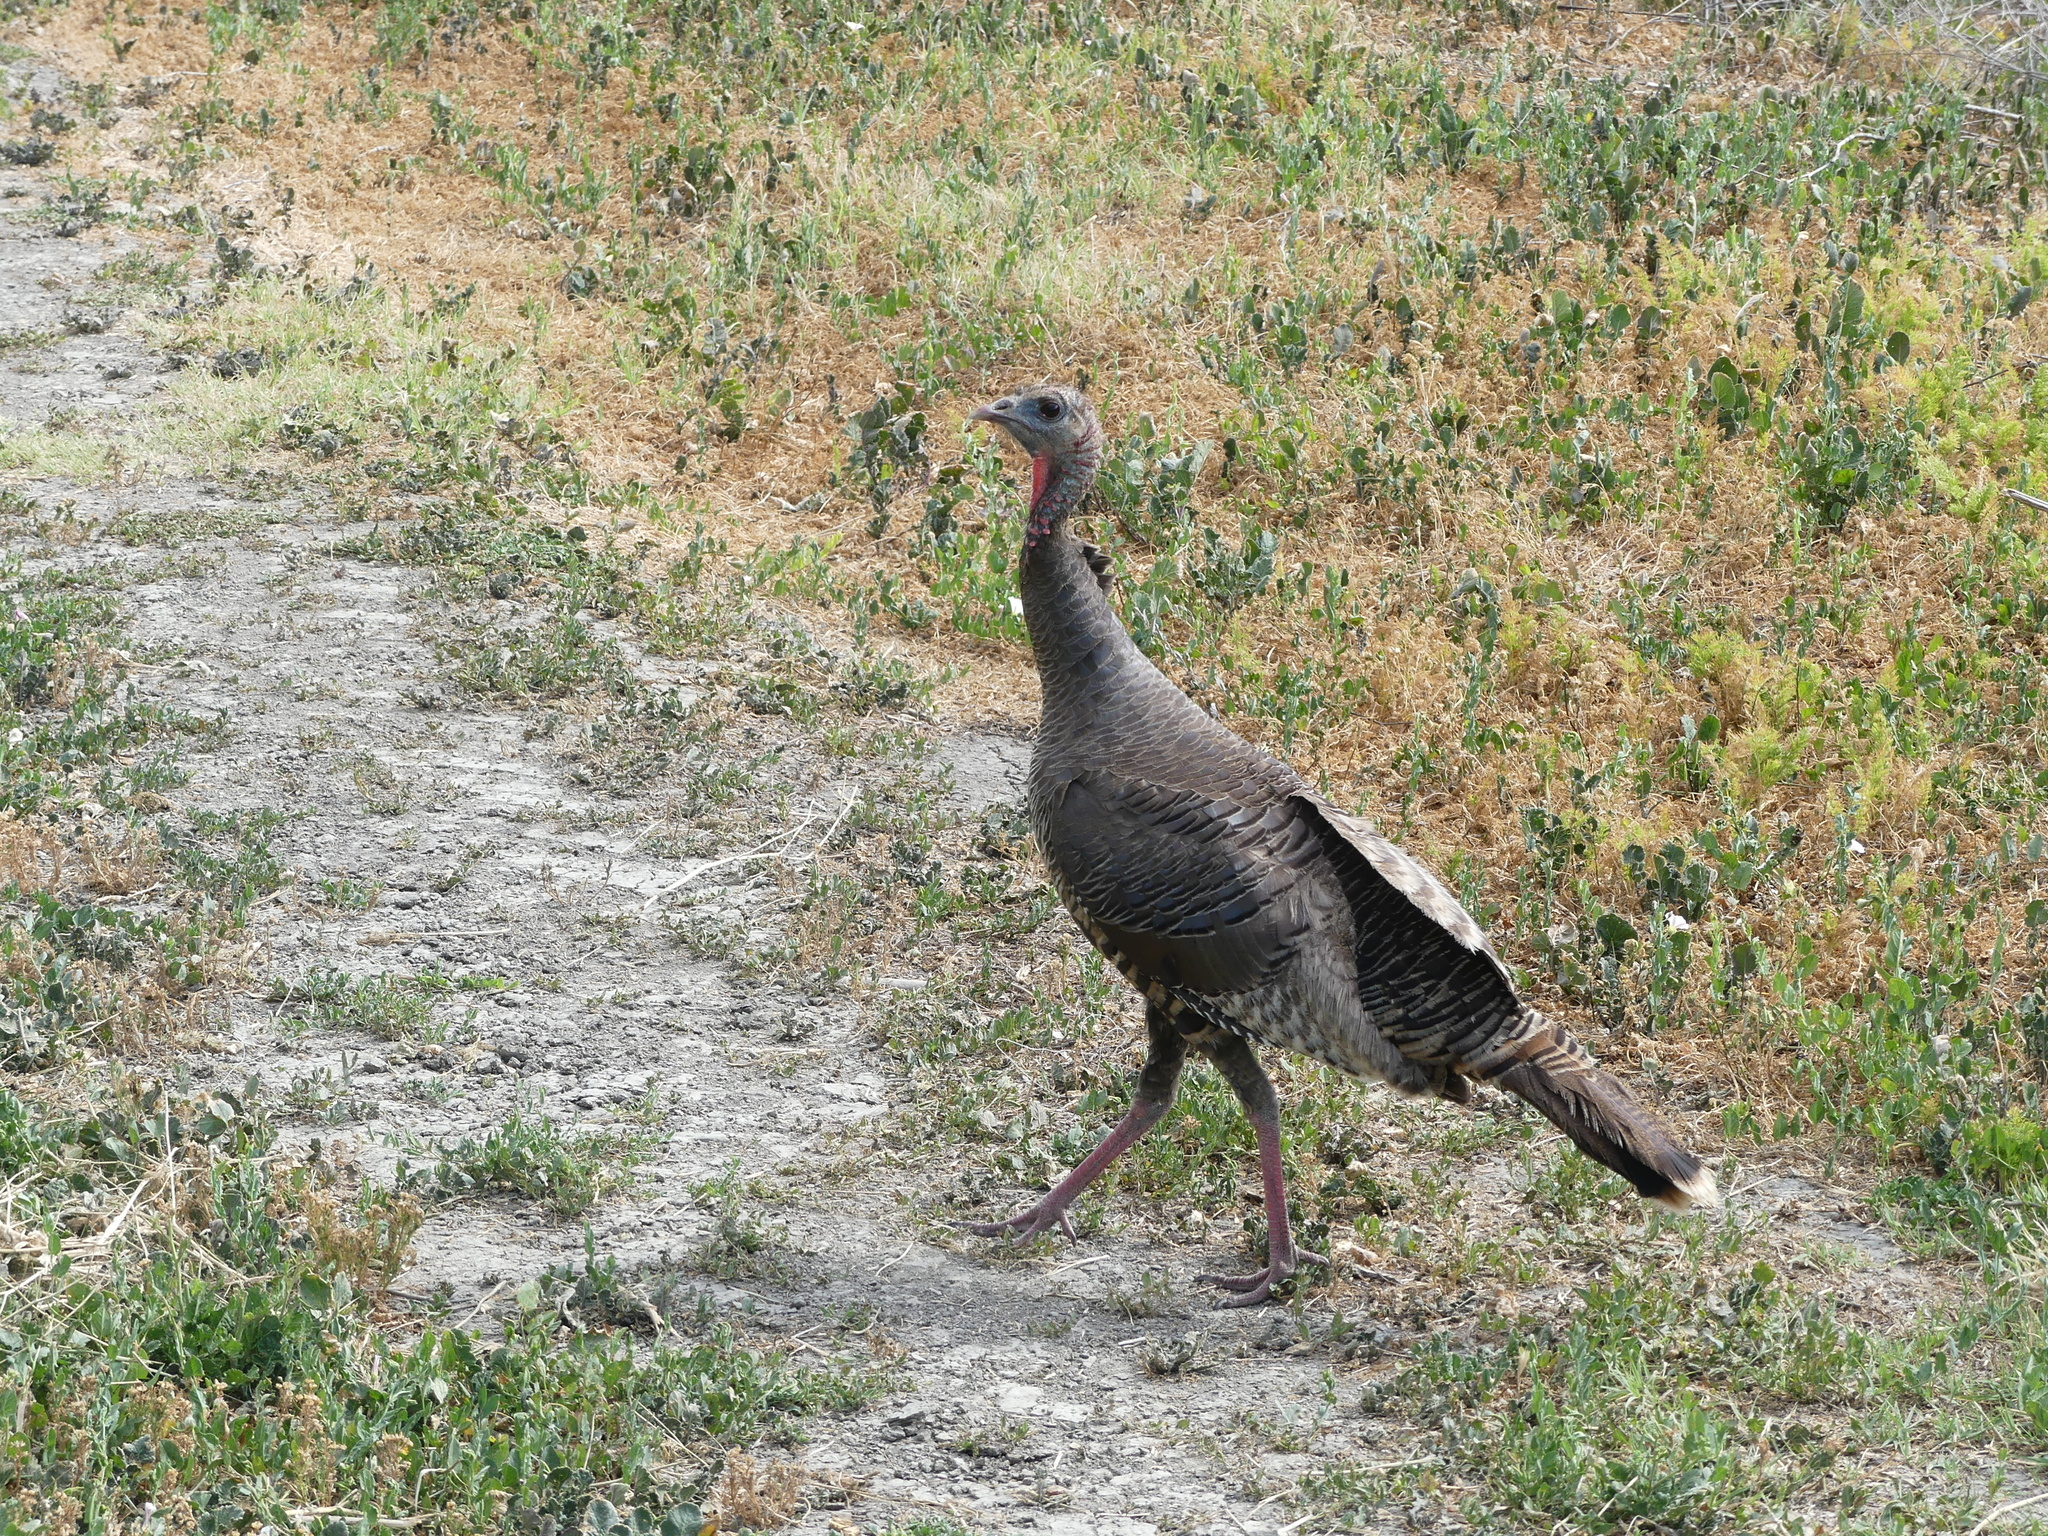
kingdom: Animalia
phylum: Chordata
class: Aves
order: Galliformes
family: Phasianidae
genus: Meleagris
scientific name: Meleagris gallopavo
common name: Wild turkey
